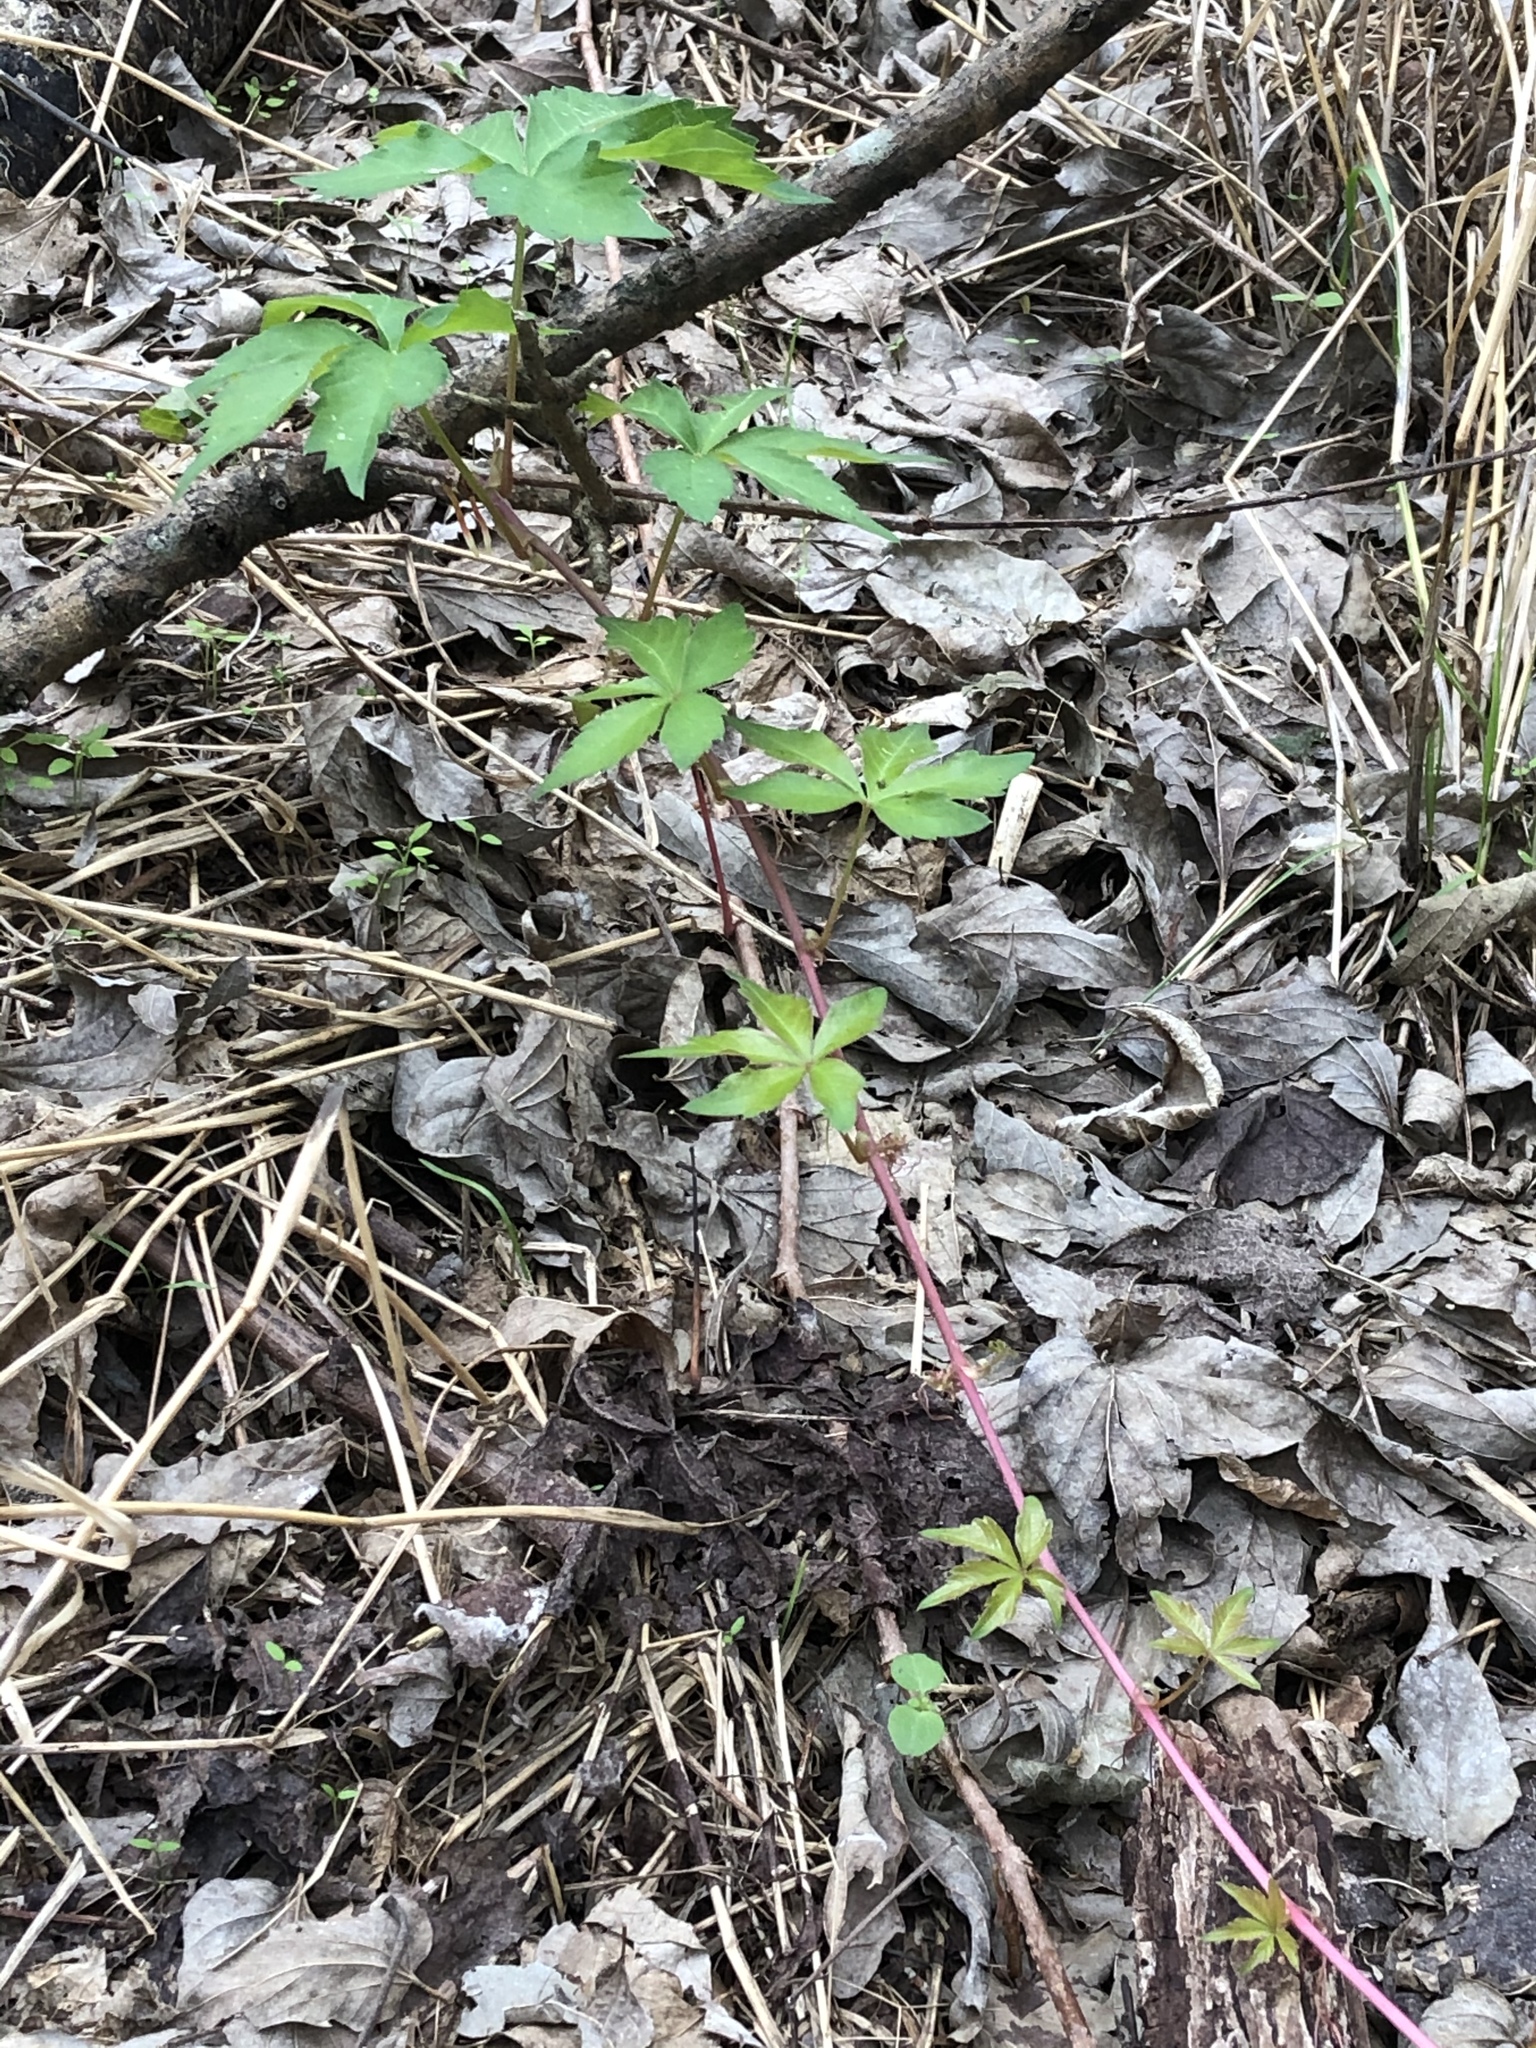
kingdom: Plantae
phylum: Tracheophyta
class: Magnoliopsida
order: Vitales
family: Vitaceae
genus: Parthenocissus
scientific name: Parthenocissus quinquefolia
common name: Virginia-creeper
